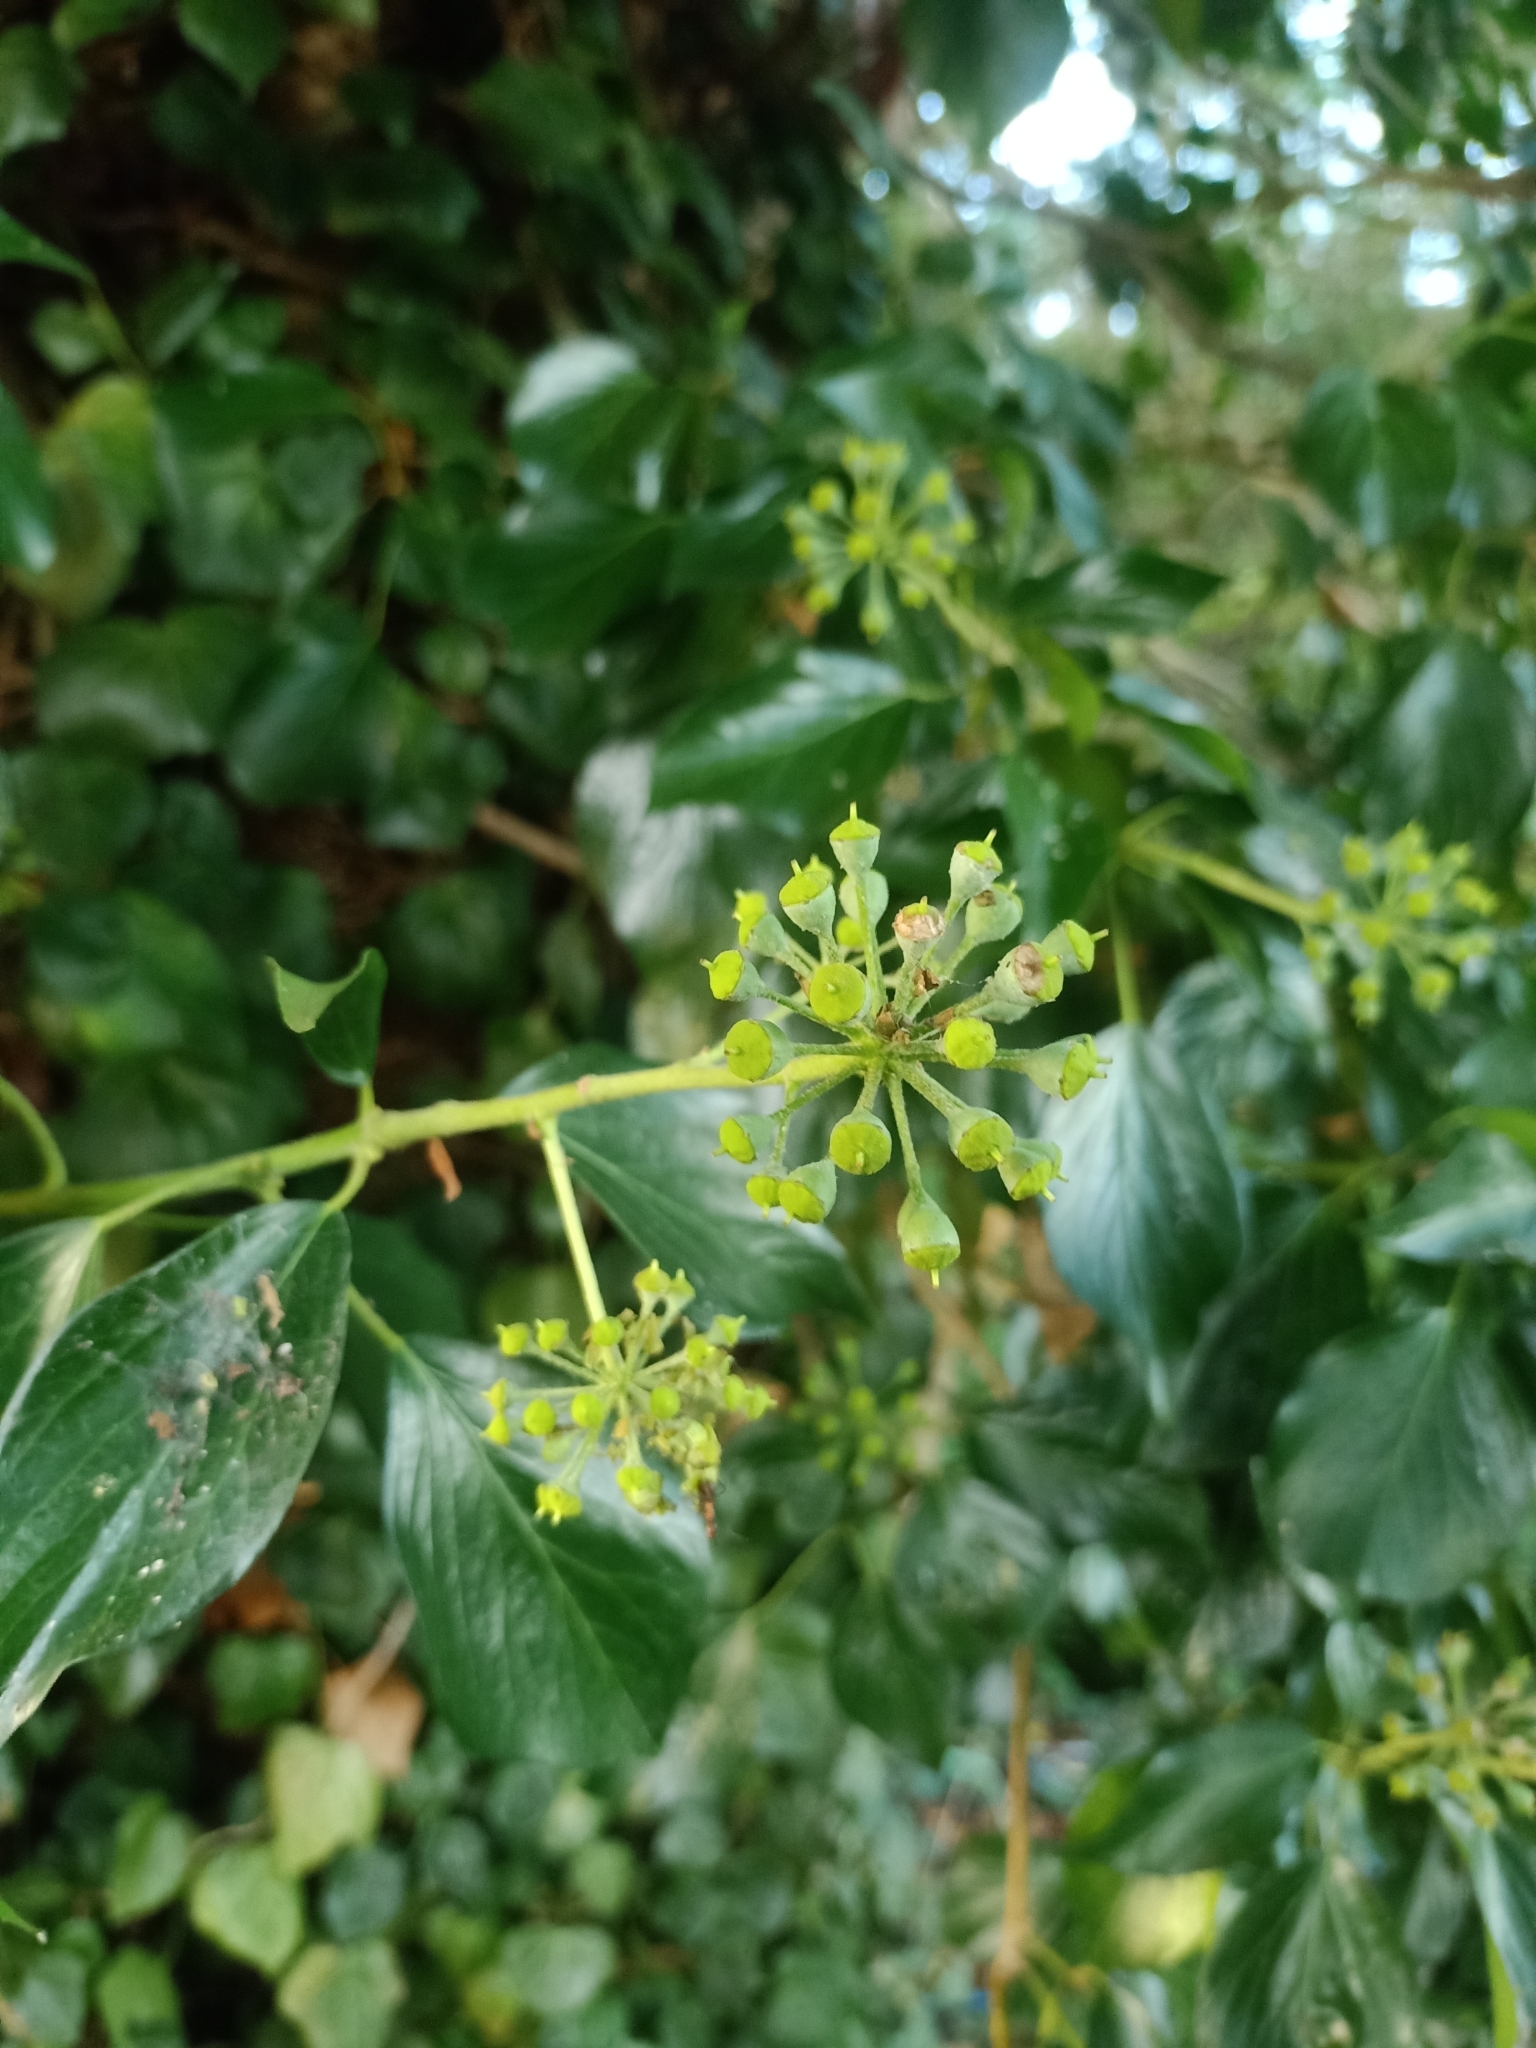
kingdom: Plantae
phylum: Tracheophyta
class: Magnoliopsida
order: Apiales
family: Araliaceae
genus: Hedera
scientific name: Hedera helix
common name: Ivy
